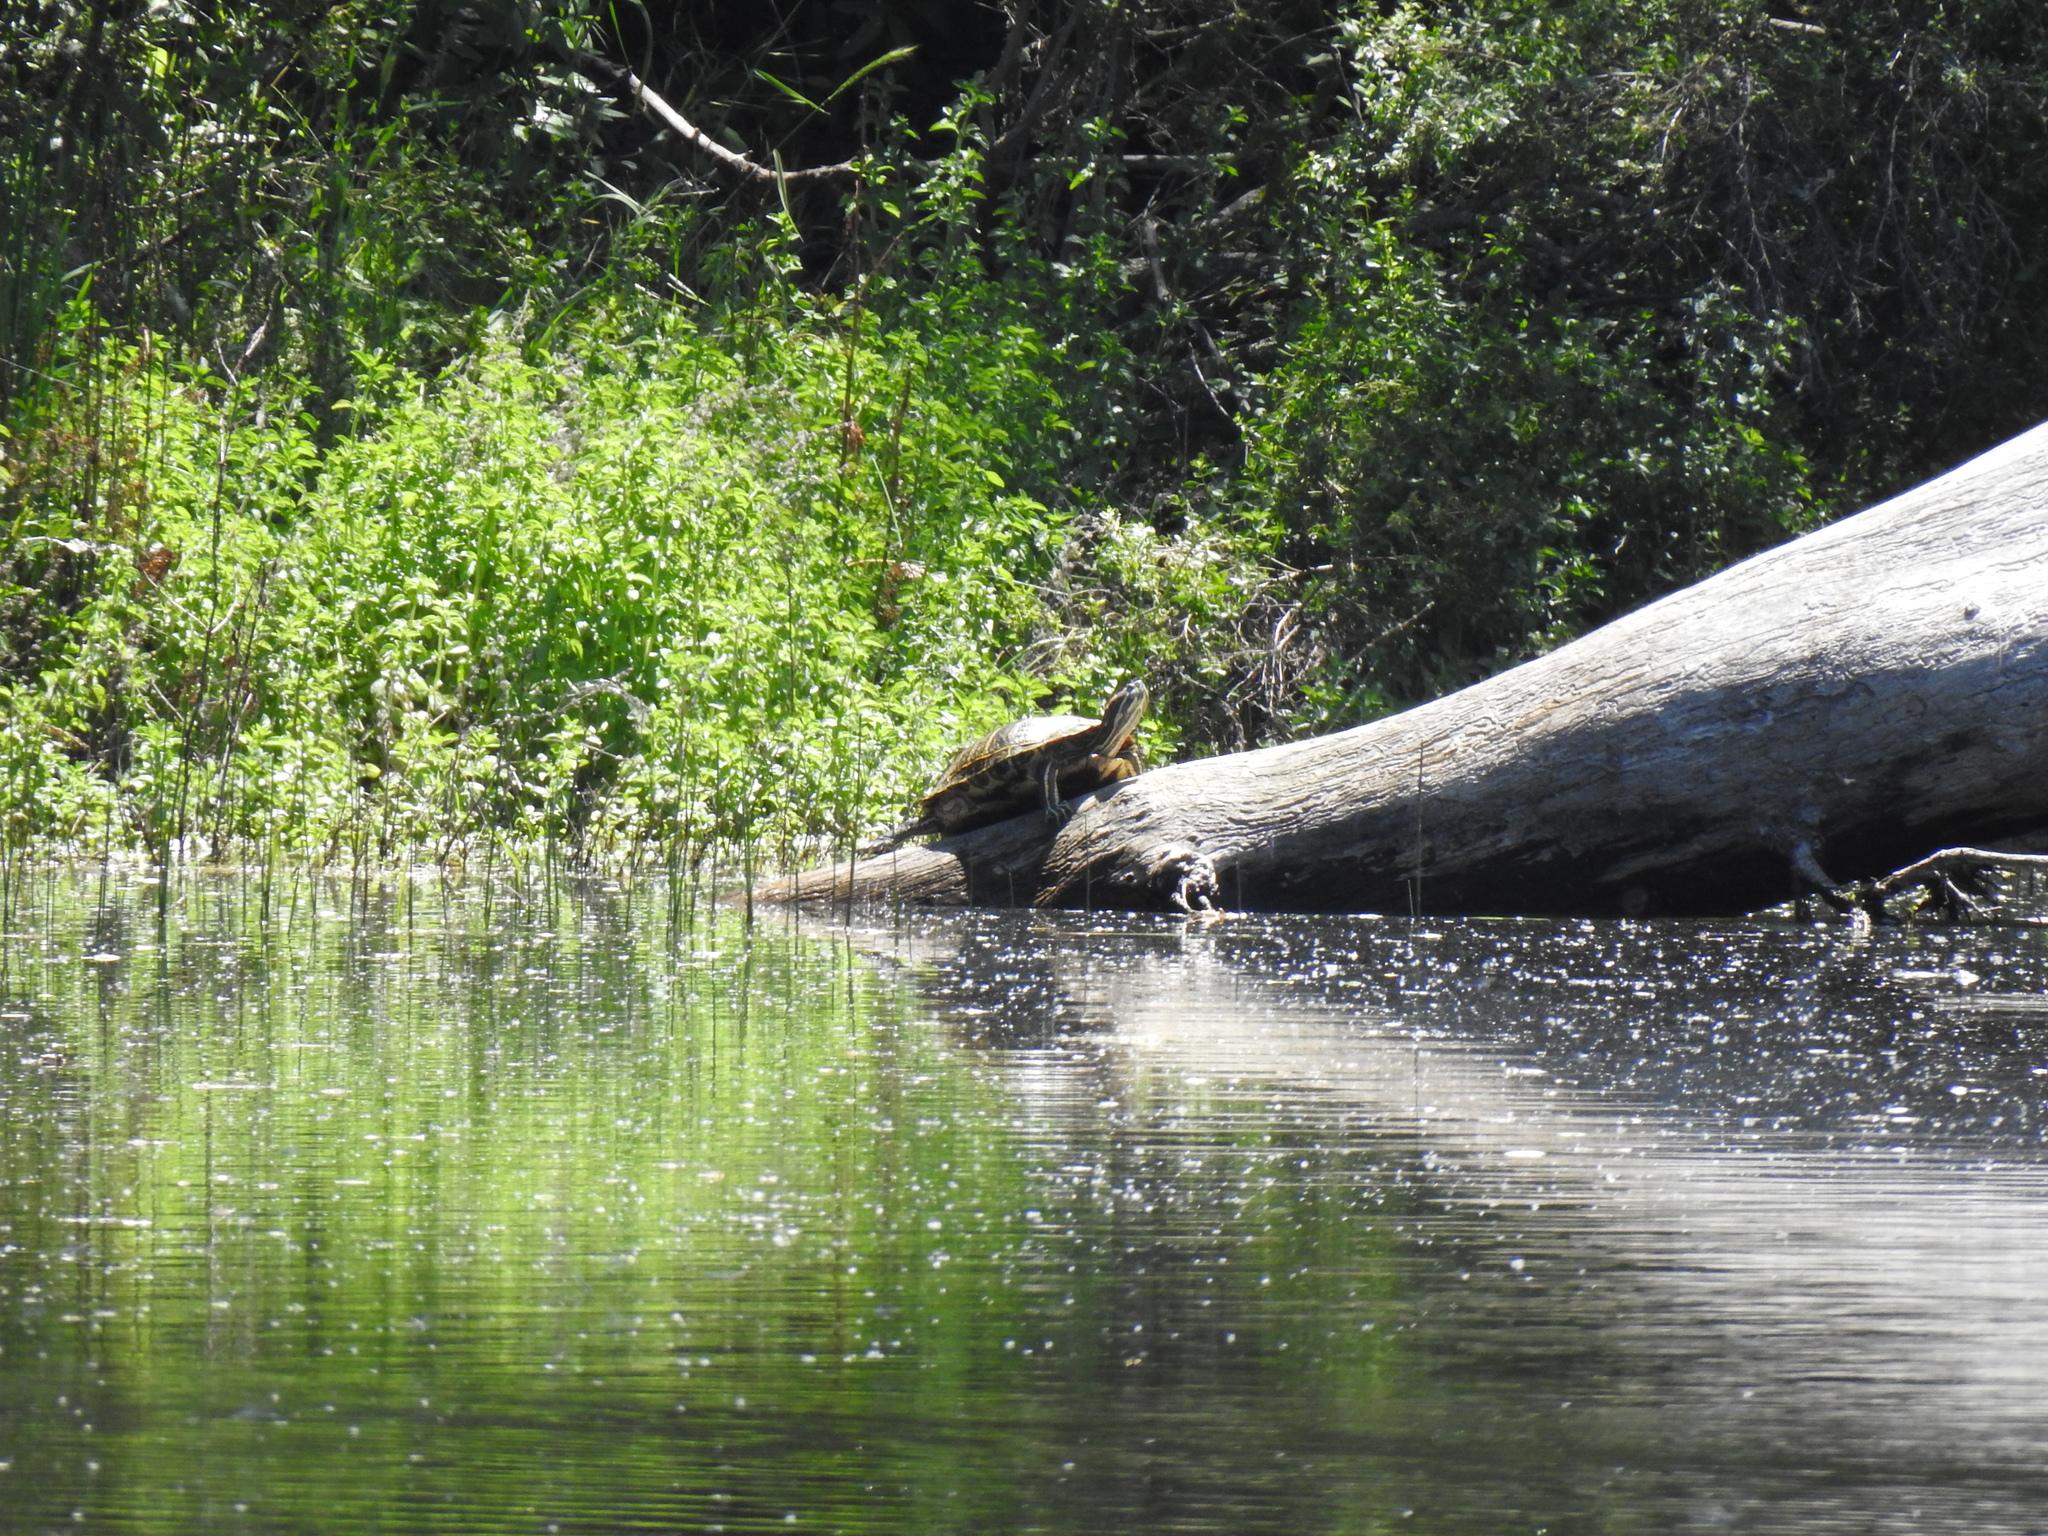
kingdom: Animalia
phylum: Chordata
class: Testudines
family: Emydidae
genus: Trachemys
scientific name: Trachemys scripta
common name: Slider
